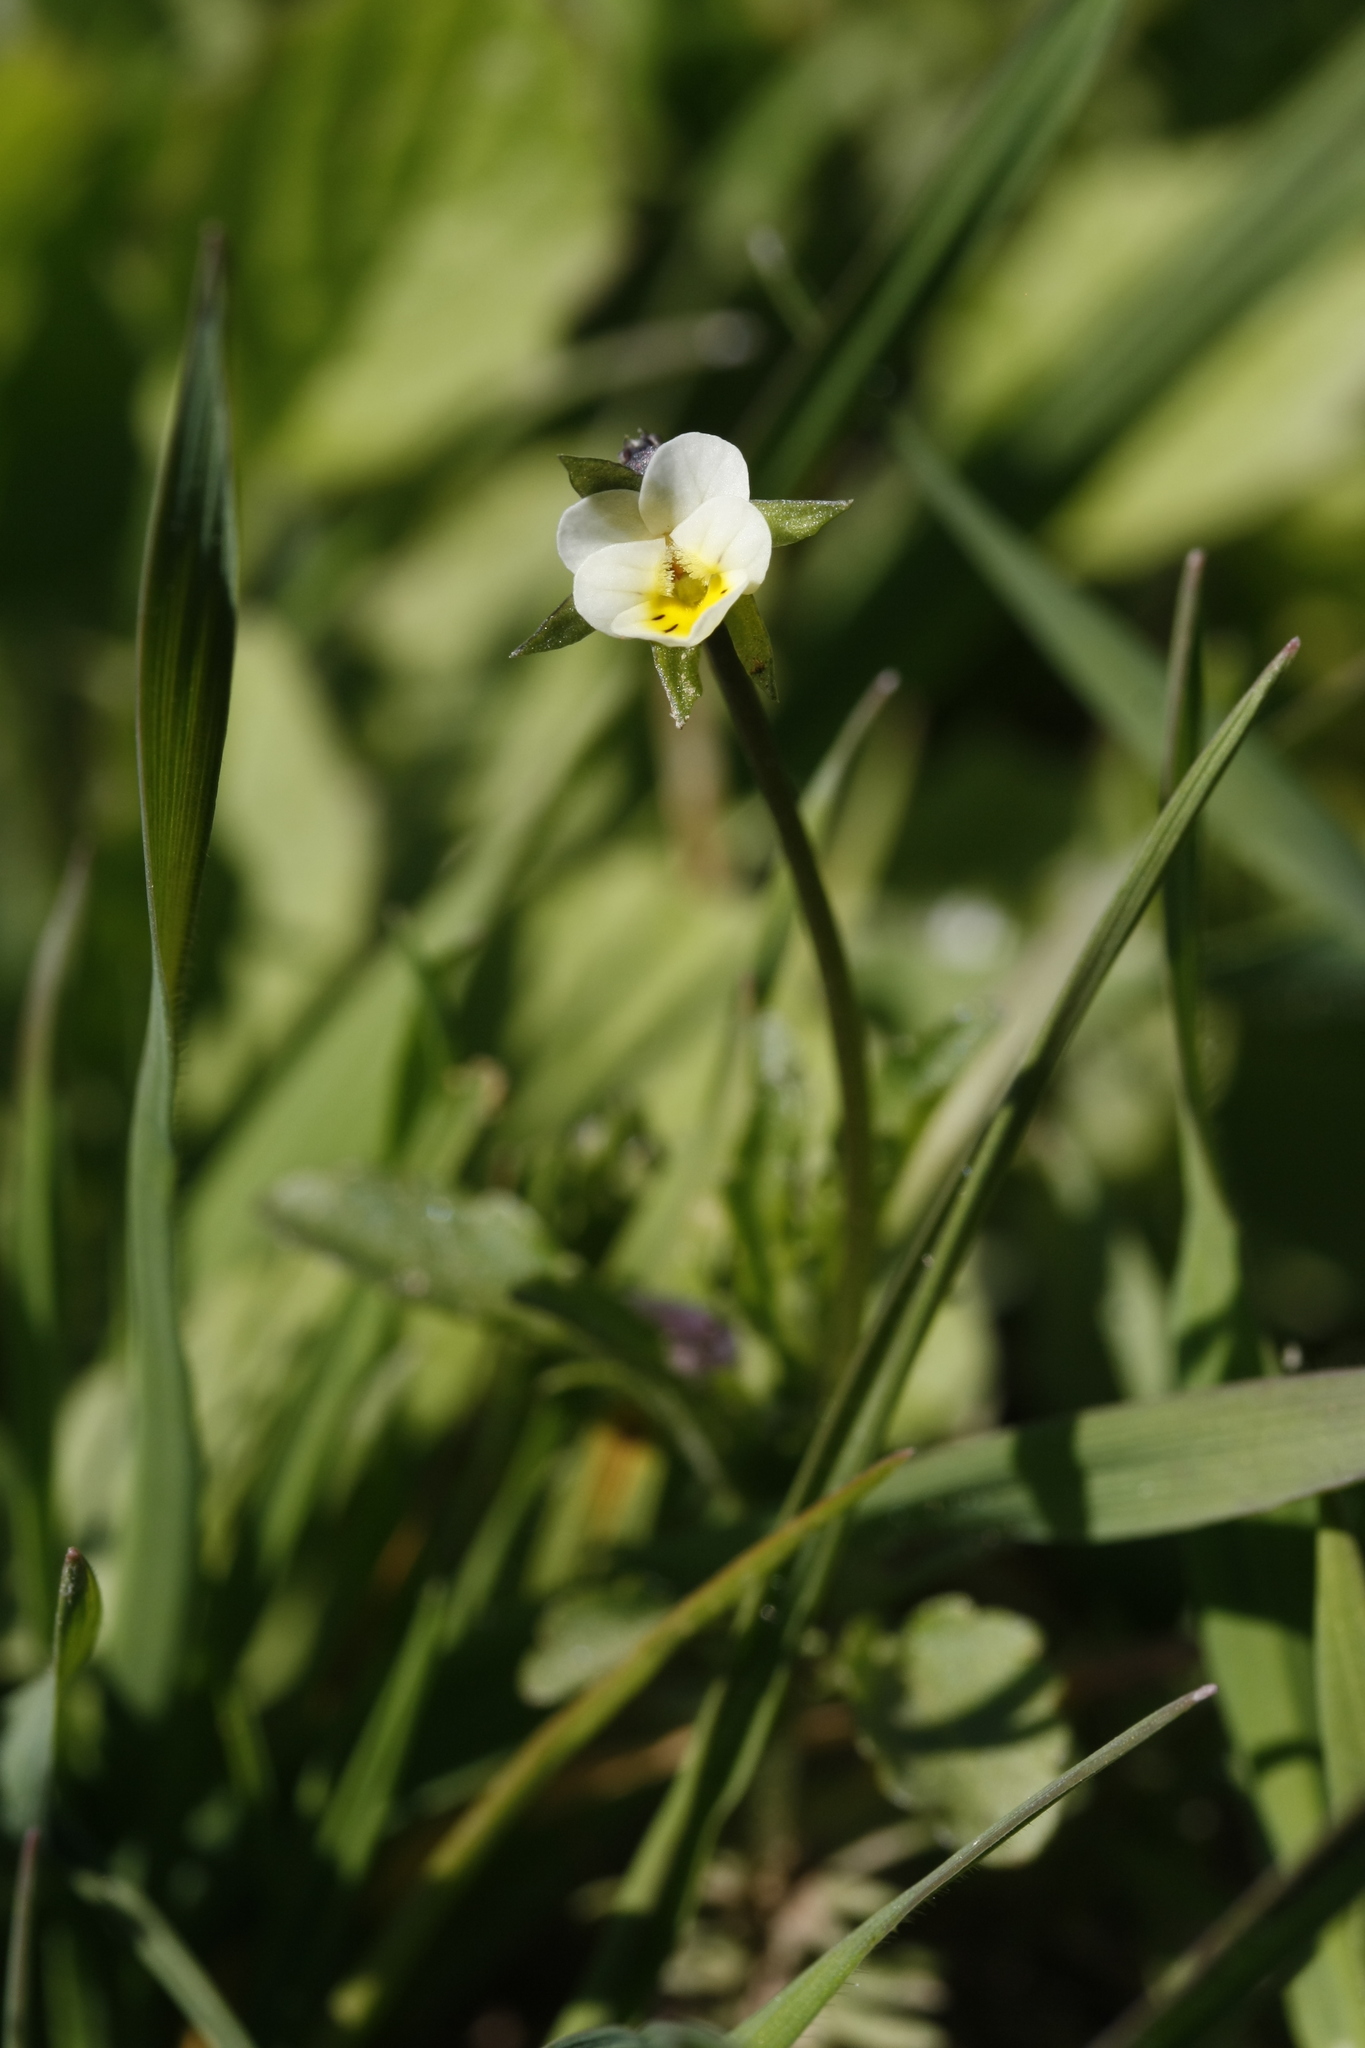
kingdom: Plantae
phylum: Tracheophyta
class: Magnoliopsida
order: Malpighiales
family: Violaceae
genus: Viola
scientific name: Viola arvensis
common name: Field pansy
